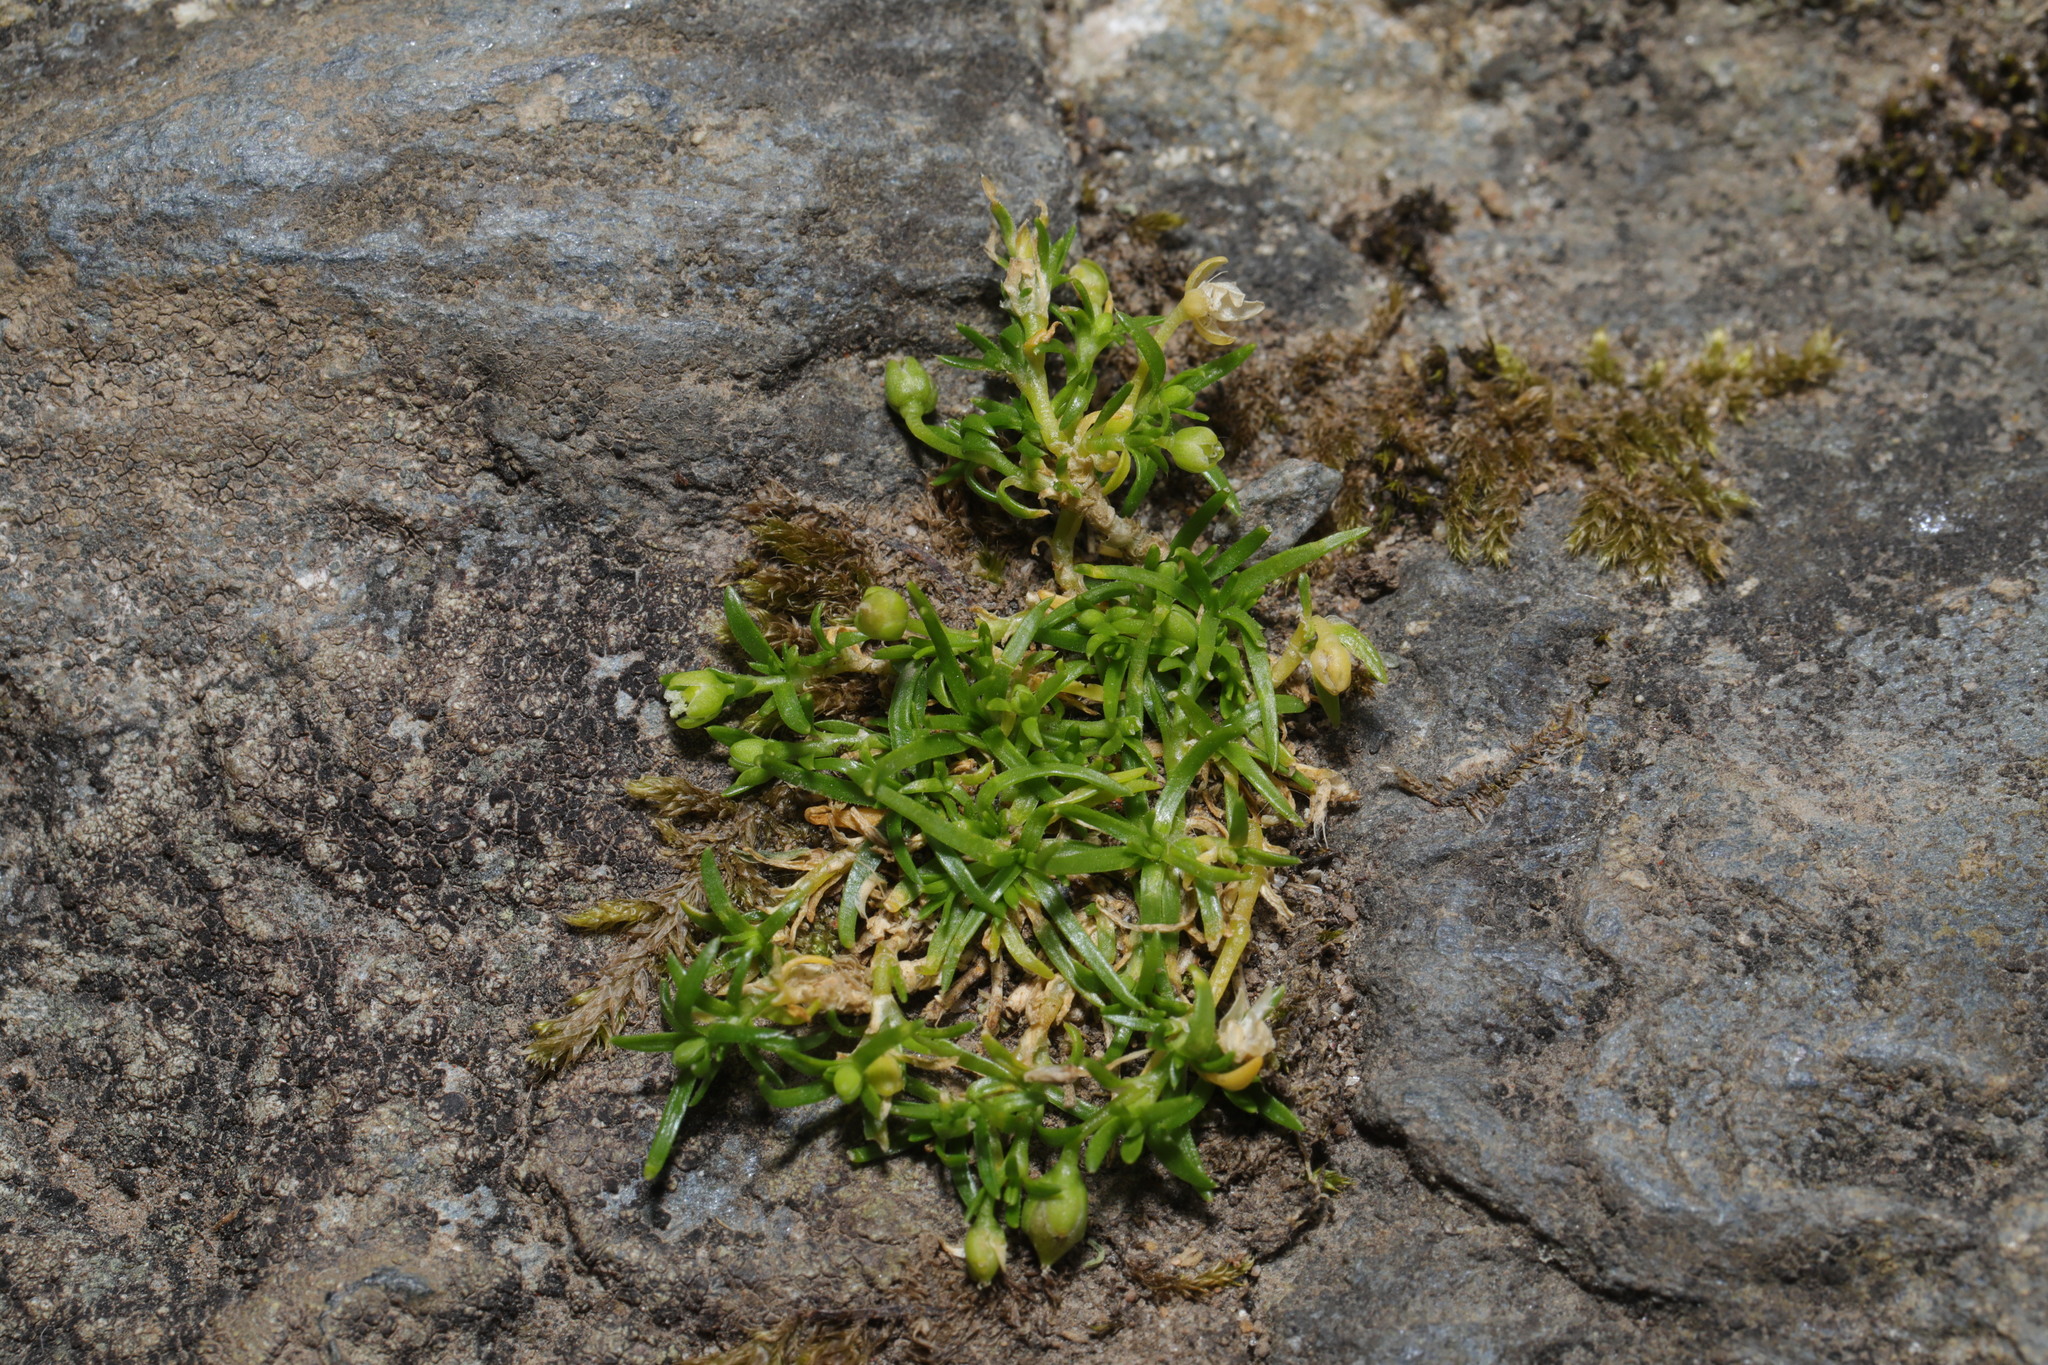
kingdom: Plantae
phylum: Tracheophyta
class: Magnoliopsida
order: Caryophyllales
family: Caryophyllaceae
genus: Sagina
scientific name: Sagina procumbens
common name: Procumbent pearlwort
